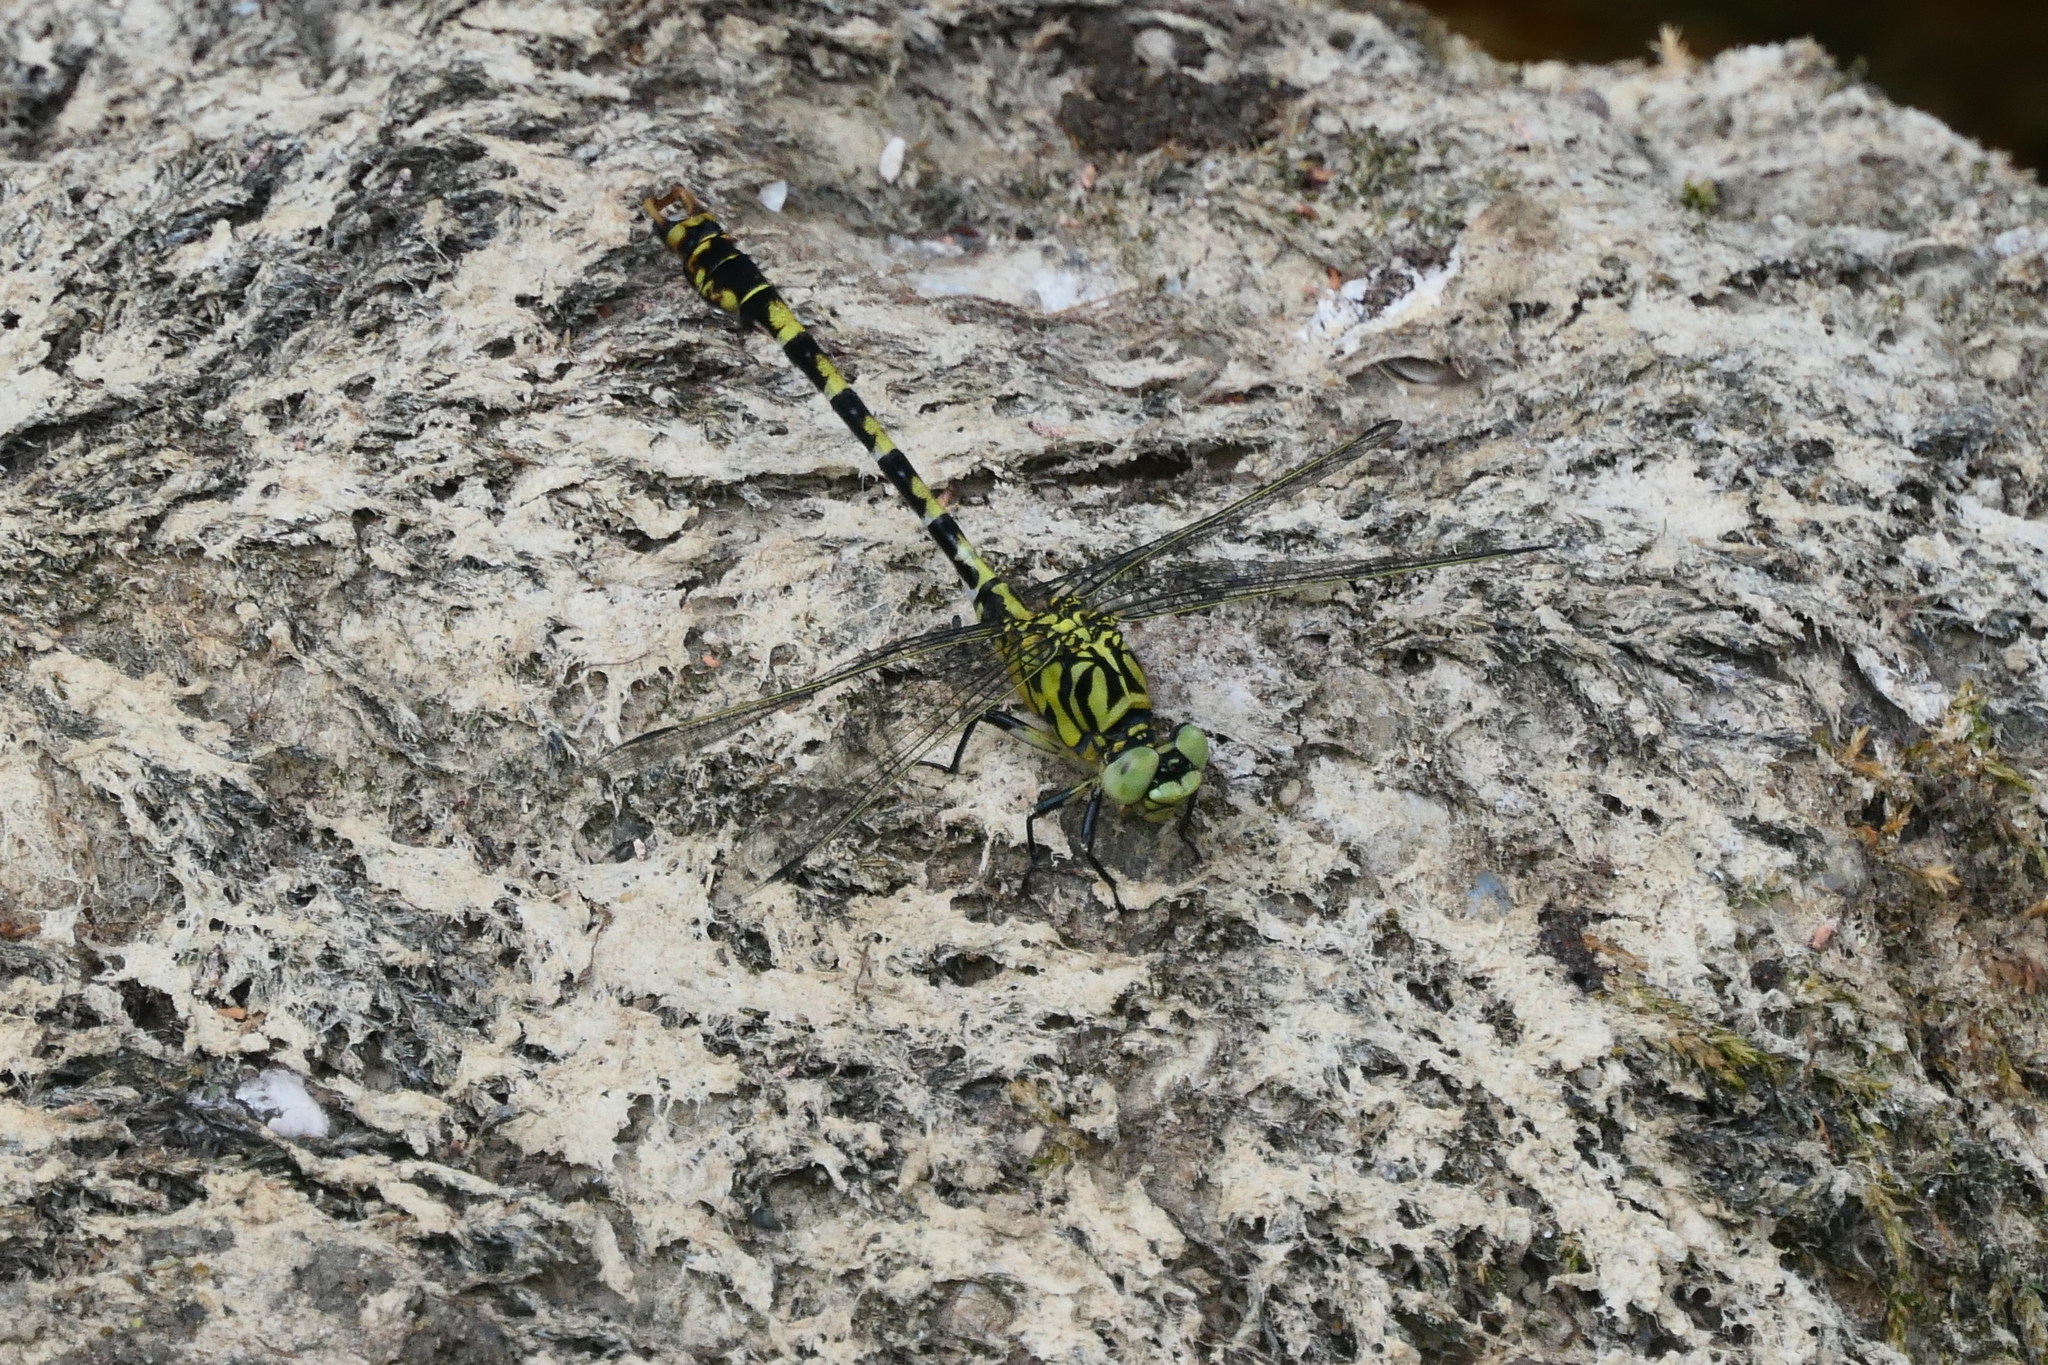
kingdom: Animalia
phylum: Arthropoda
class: Insecta
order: Odonata
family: Gomphidae
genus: Onychogomphus
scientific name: Onychogomphus forcipatus
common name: Small pincertail
